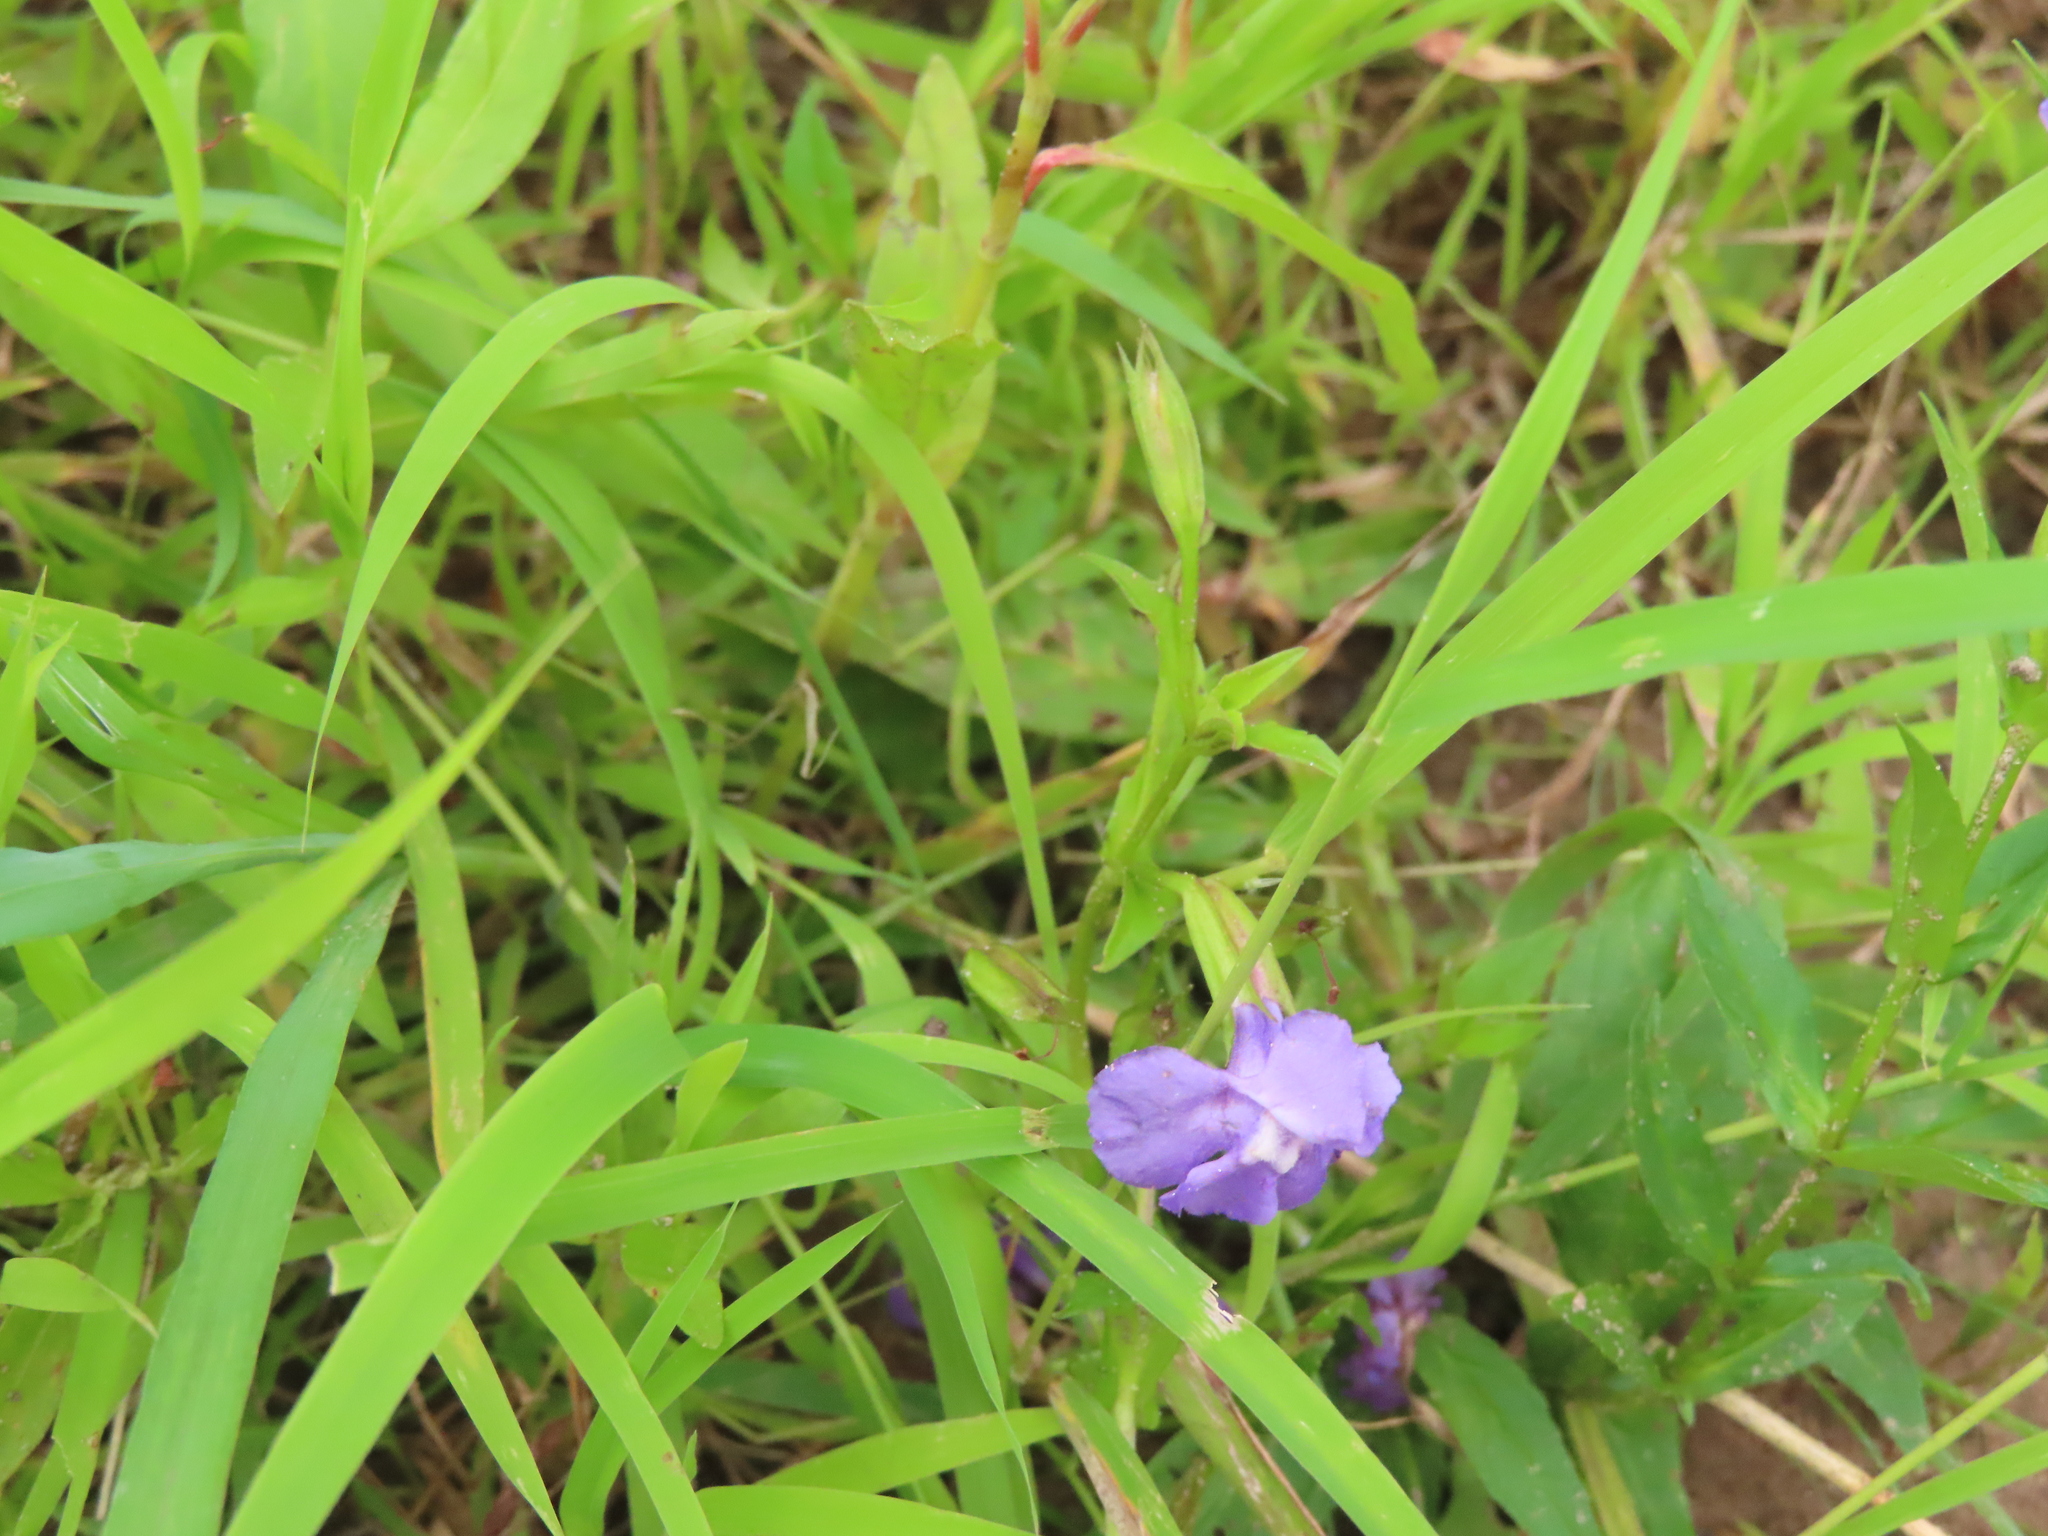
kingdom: Plantae
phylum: Tracheophyta
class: Magnoliopsida
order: Lamiales
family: Phrymaceae
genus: Mimulus
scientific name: Mimulus ringens
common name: Allegheny monkeyflower
